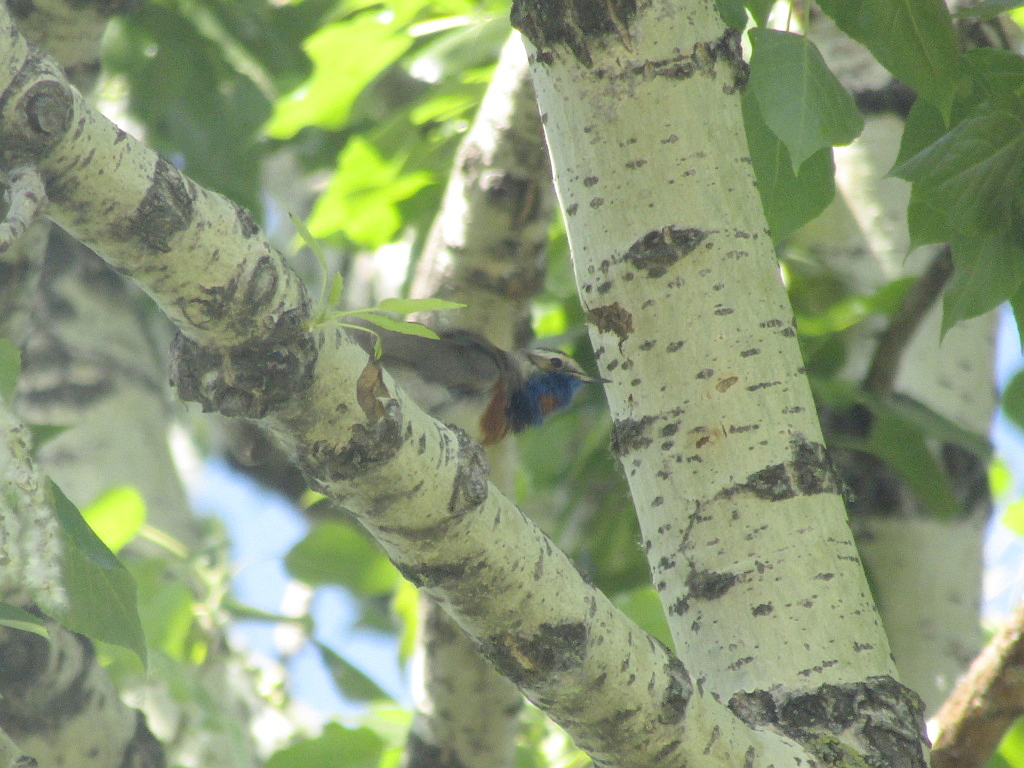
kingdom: Animalia
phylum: Chordata
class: Aves
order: Passeriformes
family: Muscicapidae
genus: Luscinia
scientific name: Luscinia svecica
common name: Bluethroat
